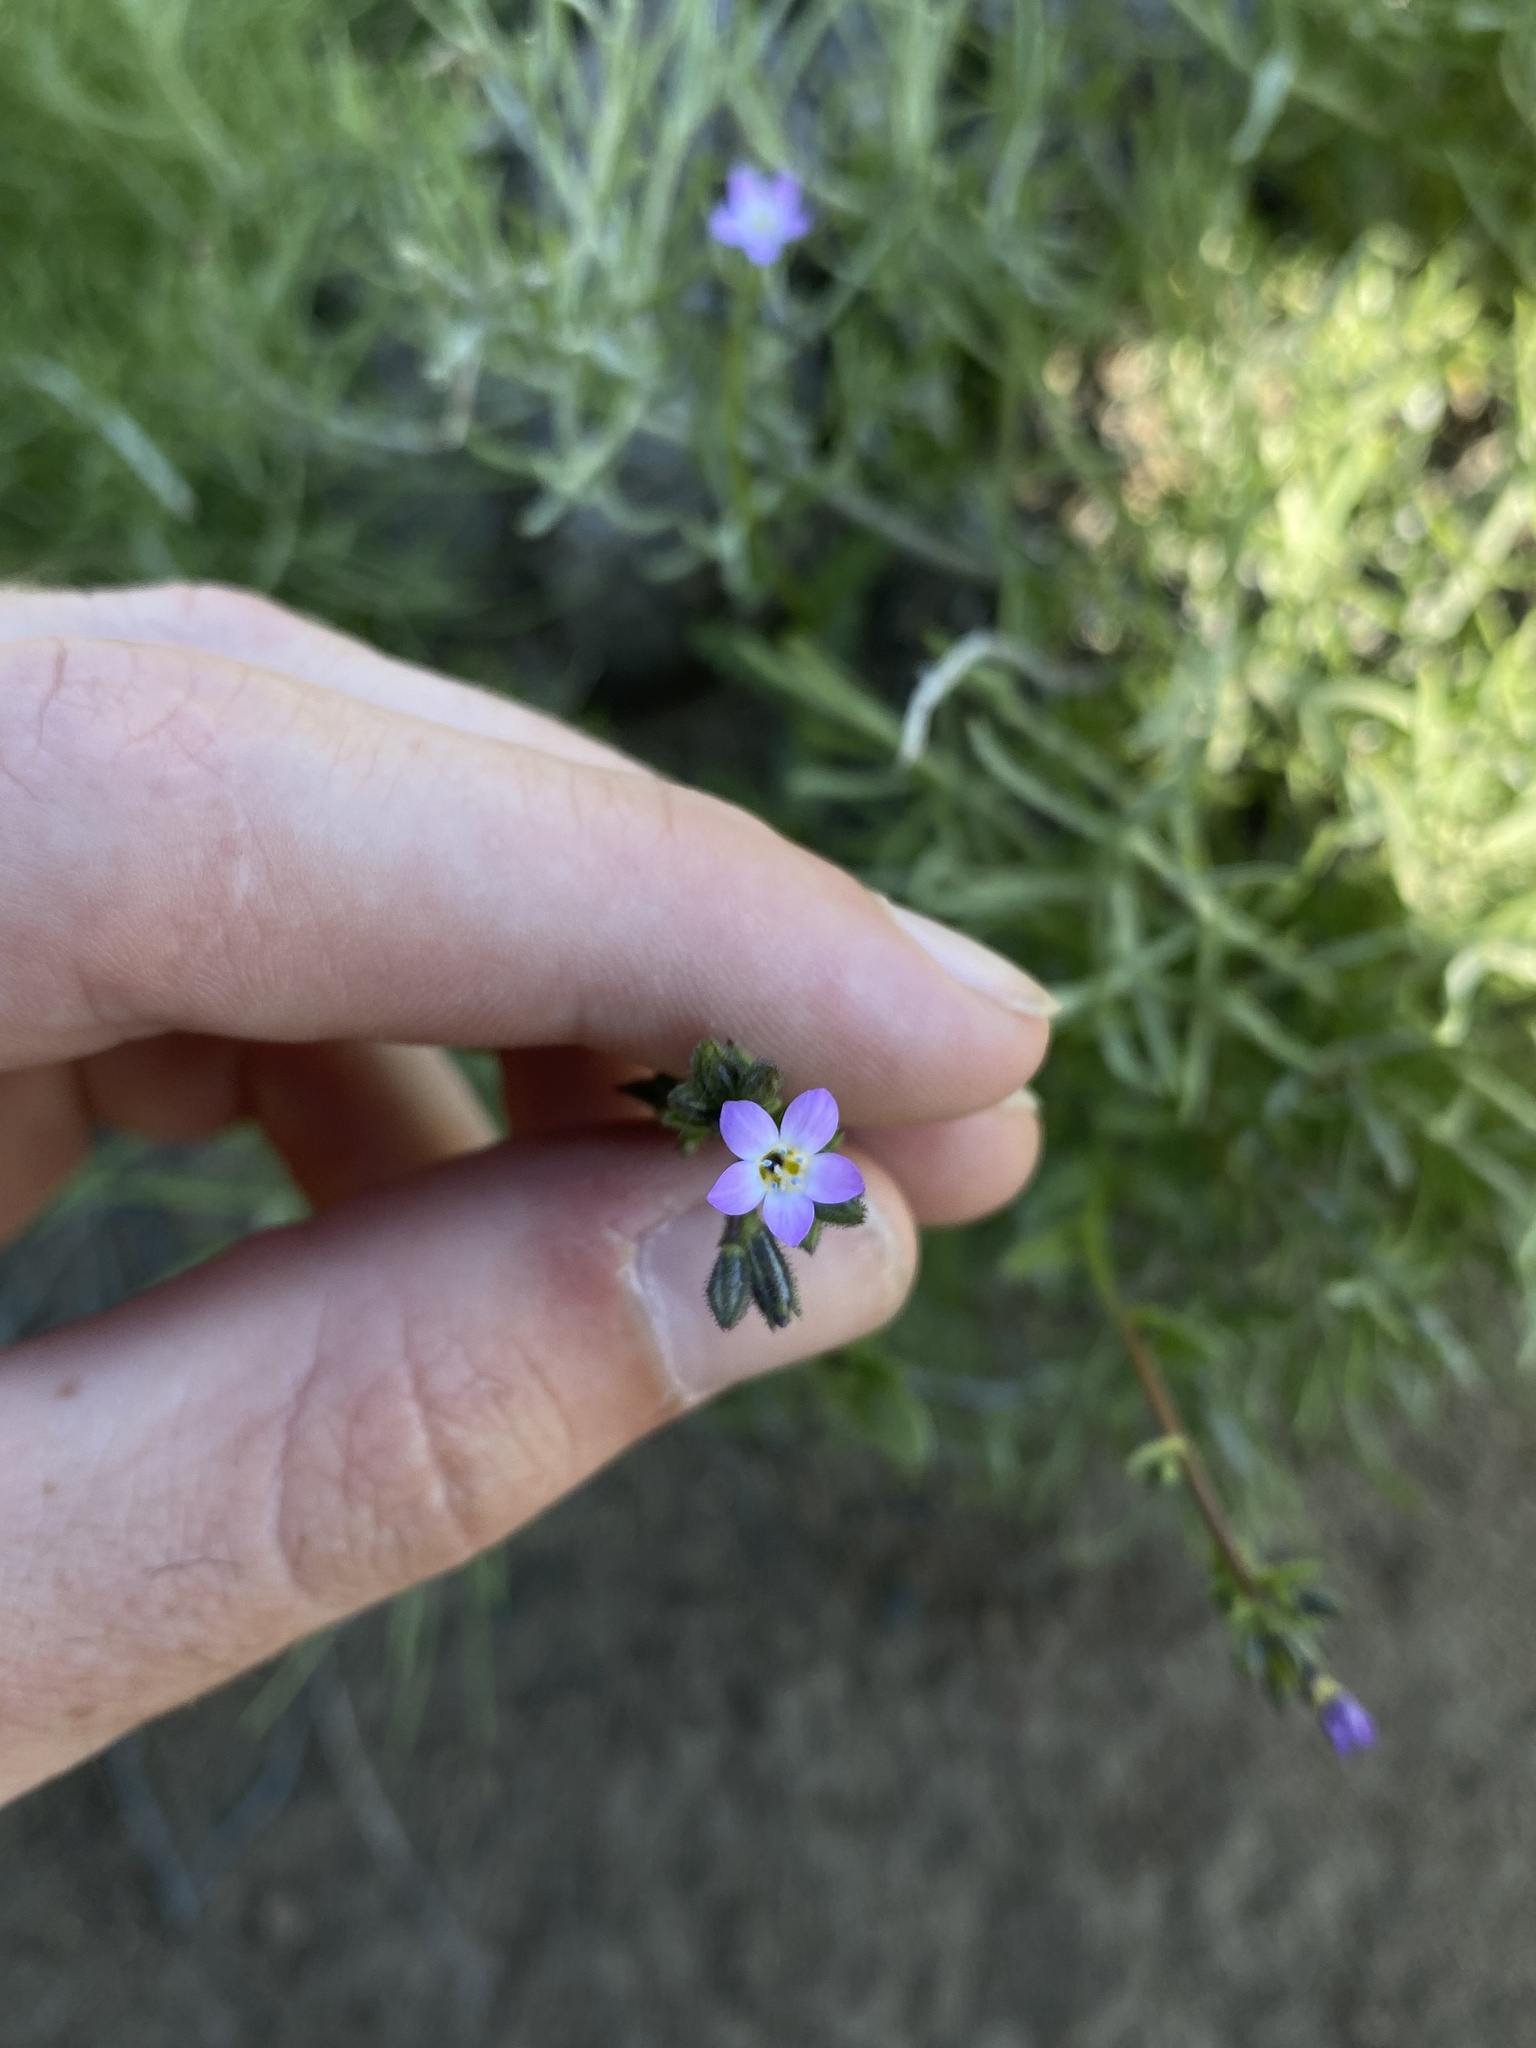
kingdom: Plantae
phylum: Tracheophyta
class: Magnoliopsida
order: Ericales
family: Polemoniaceae
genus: Gilia
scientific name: Gilia modocensis
